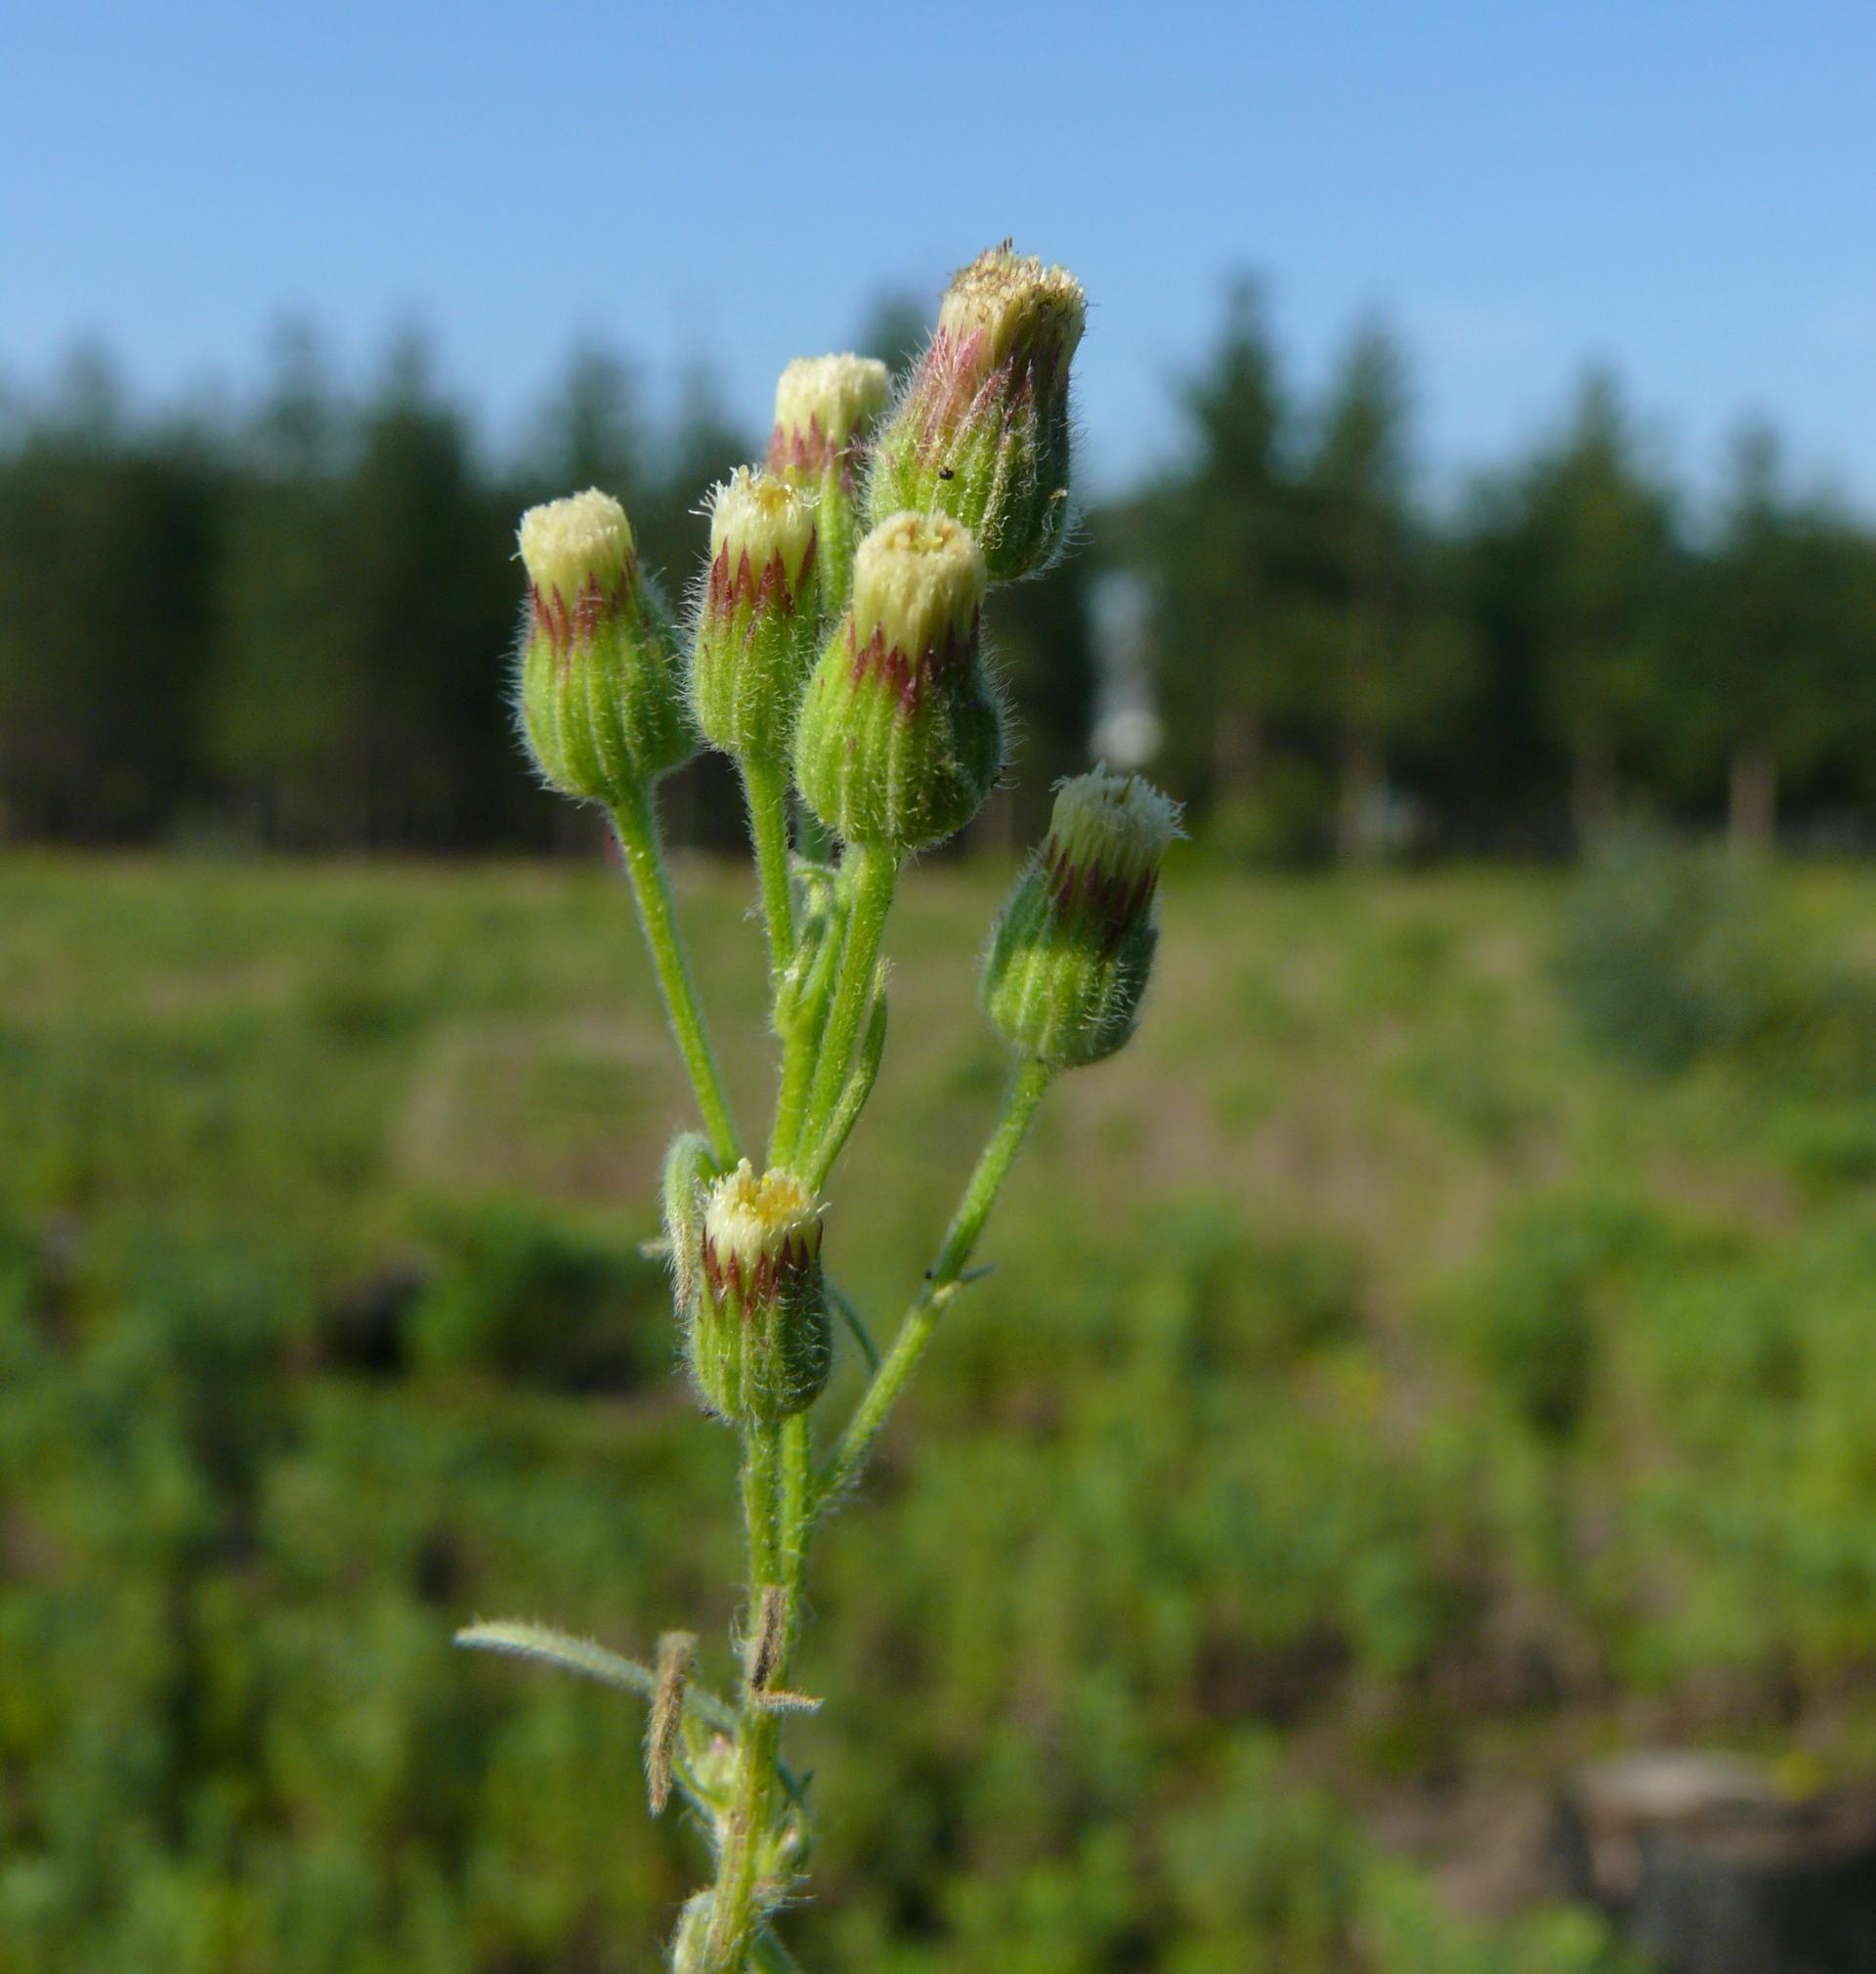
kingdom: Plantae
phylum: Tracheophyta
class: Magnoliopsida
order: Asterales
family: Asteraceae
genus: Erigeron
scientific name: Erigeron bonariensis
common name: Argentine fleabane
